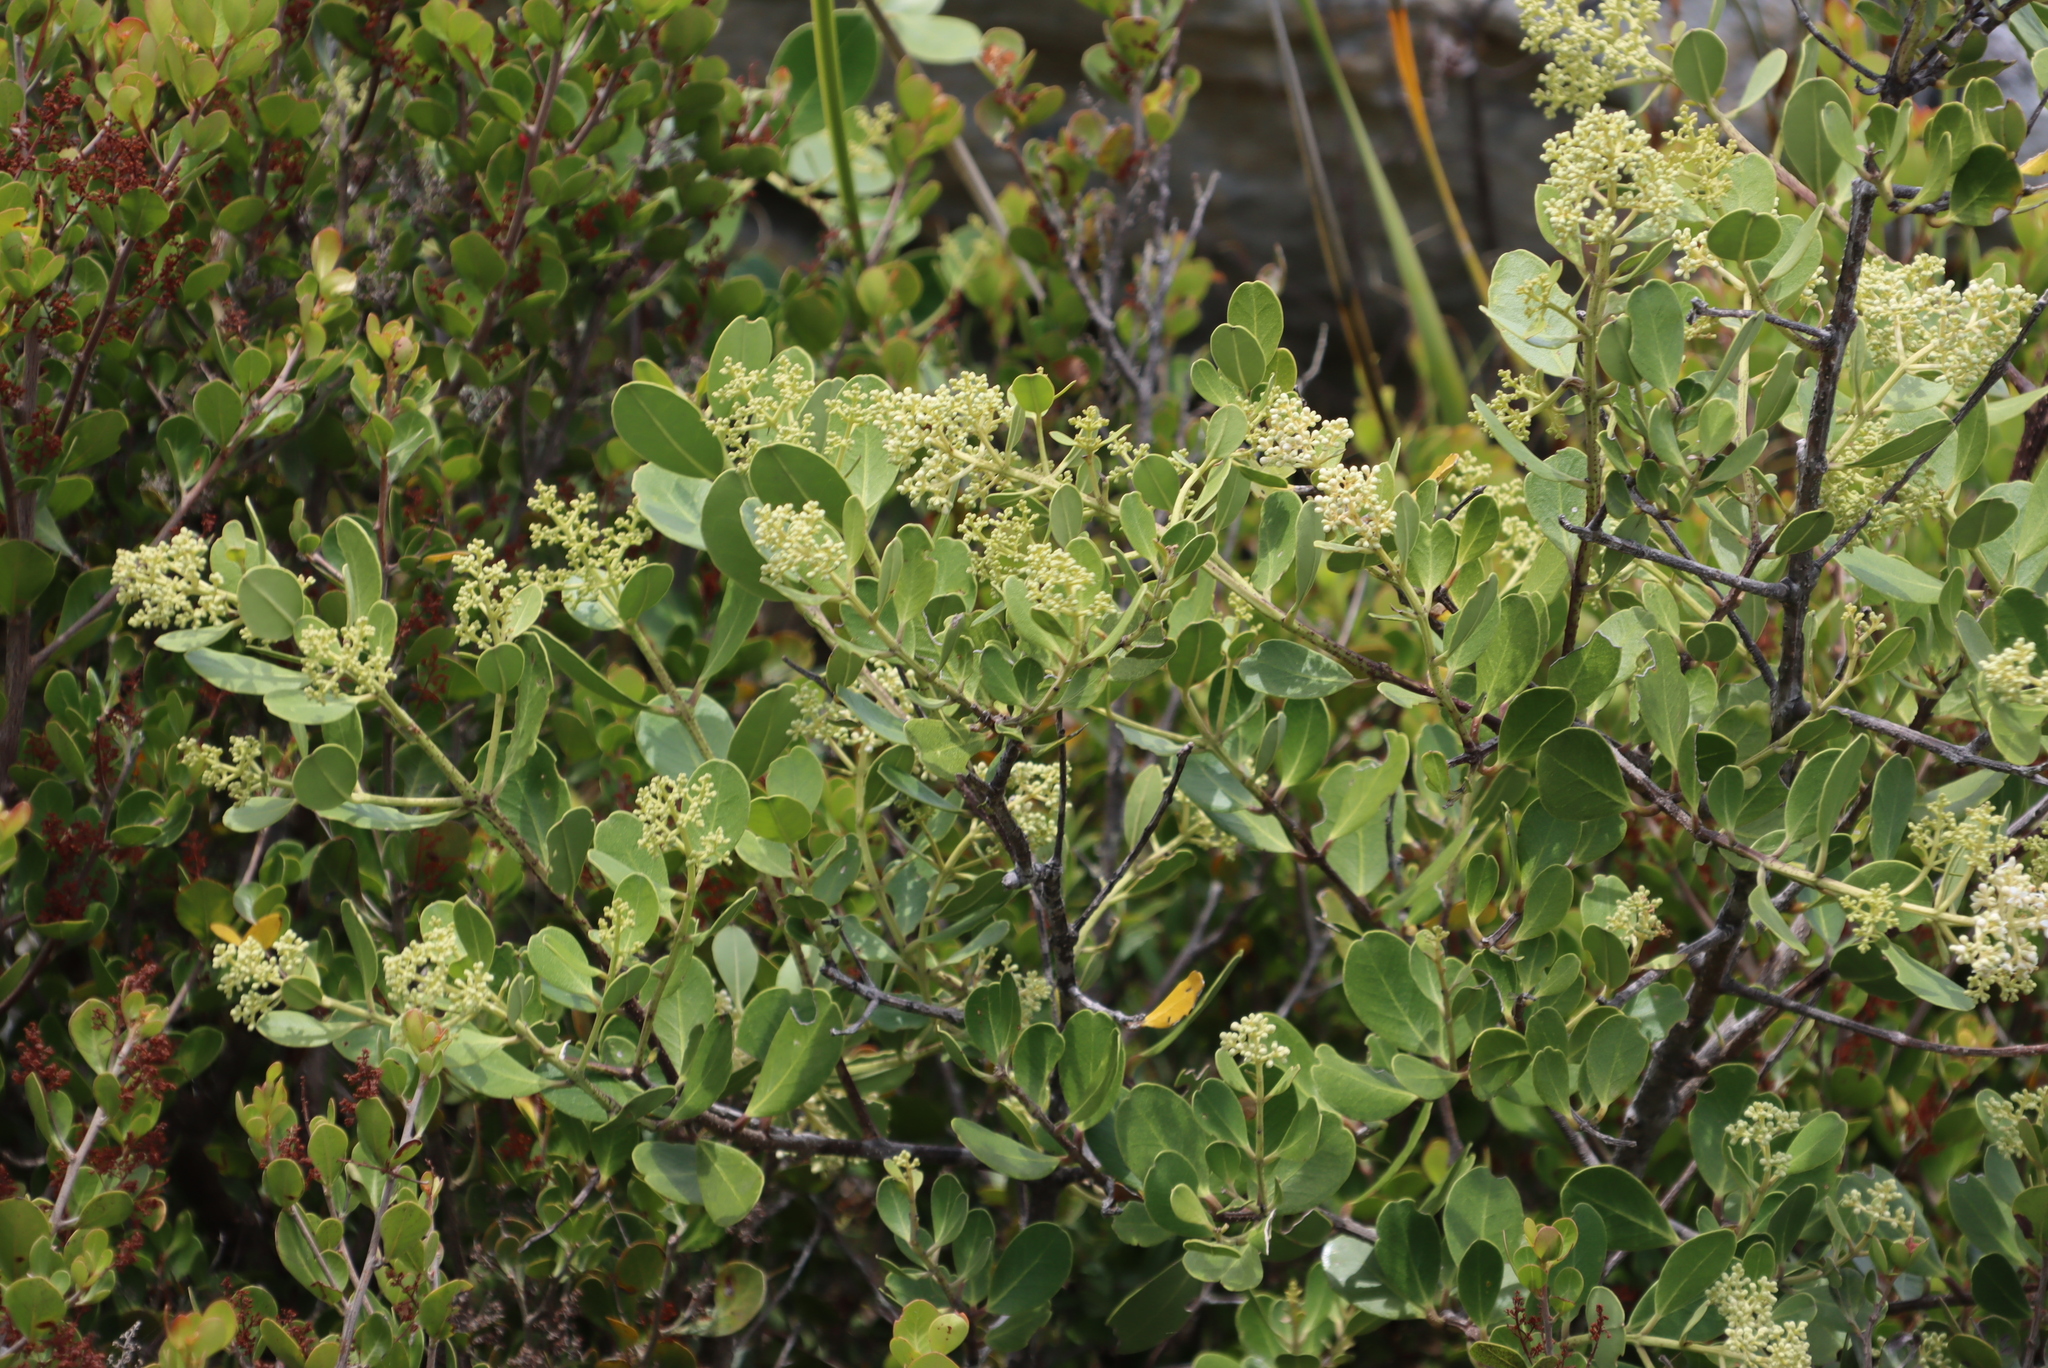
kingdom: Plantae
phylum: Tracheophyta
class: Magnoliopsida
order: Lamiales
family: Oleaceae
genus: Olea
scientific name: Olea capensis
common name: Black ironwood
